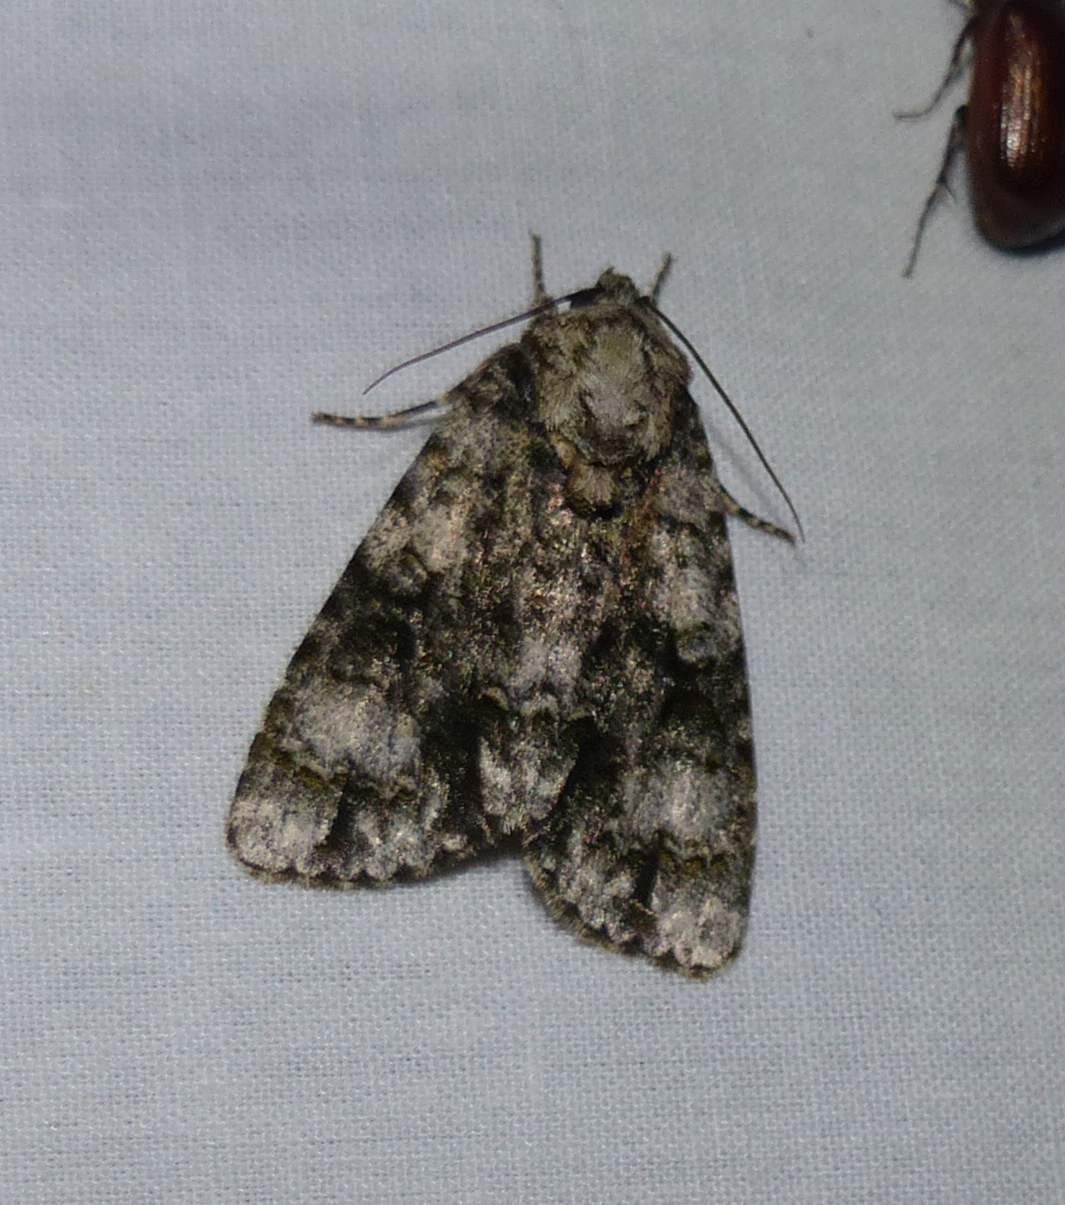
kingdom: Animalia
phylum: Arthropoda
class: Insecta
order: Lepidoptera
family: Noctuidae
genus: Acronicta
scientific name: Acronicta superans
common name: Splendid dagger
